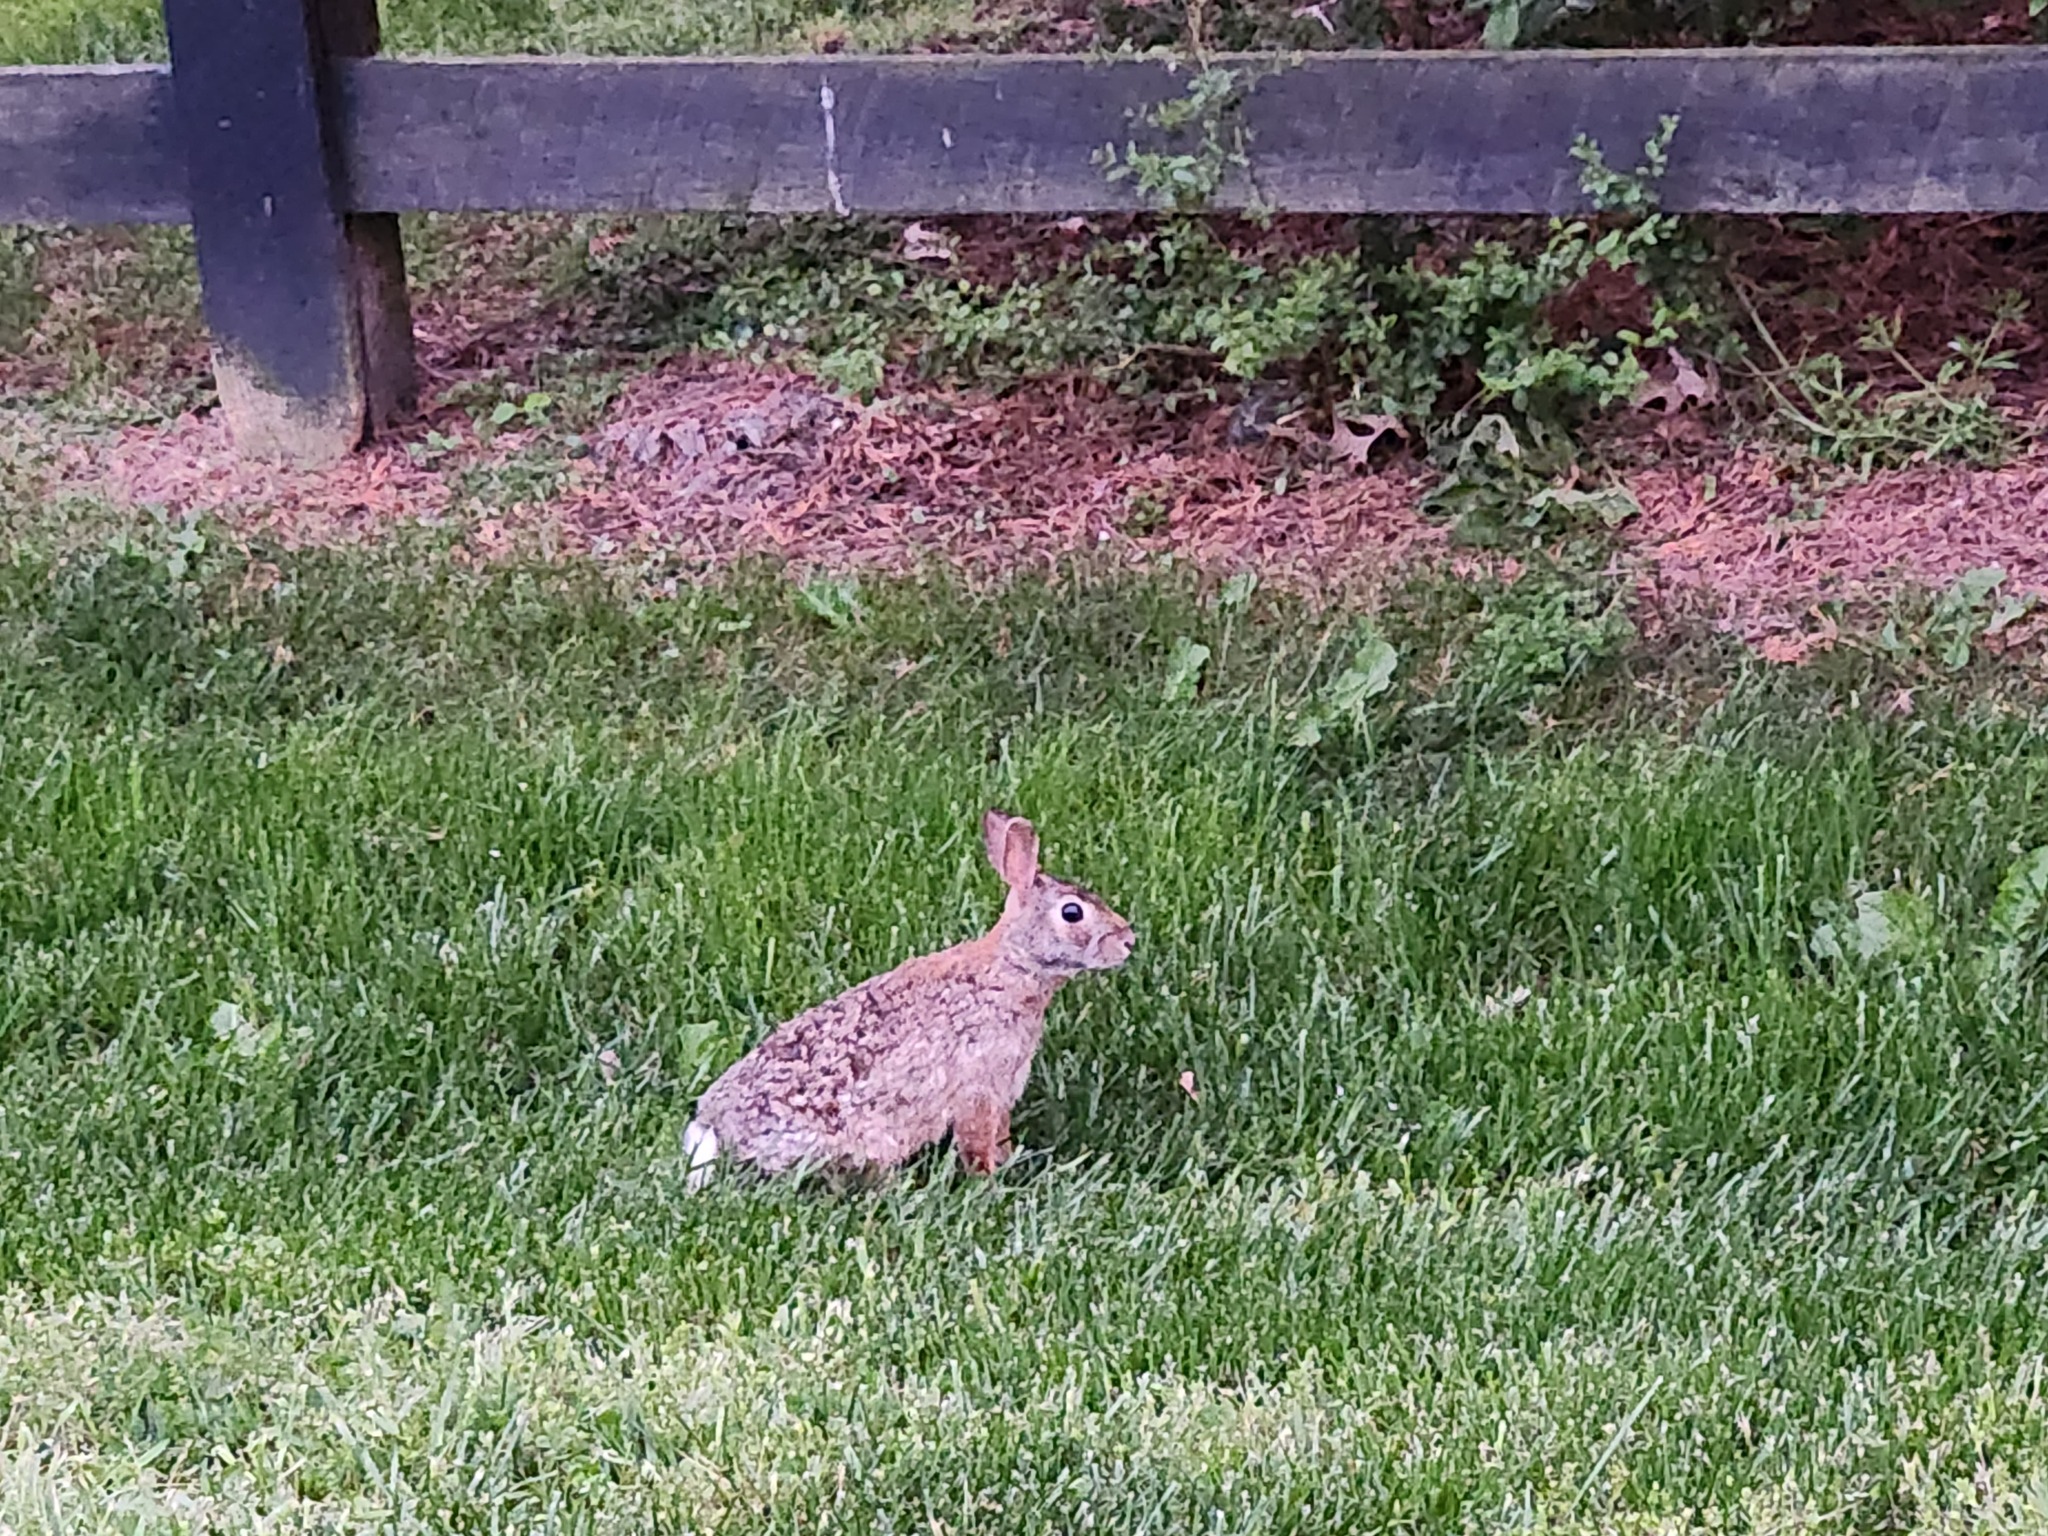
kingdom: Animalia
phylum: Chordata
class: Mammalia
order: Lagomorpha
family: Leporidae
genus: Sylvilagus
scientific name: Sylvilagus floridanus
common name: Eastern cottontail
